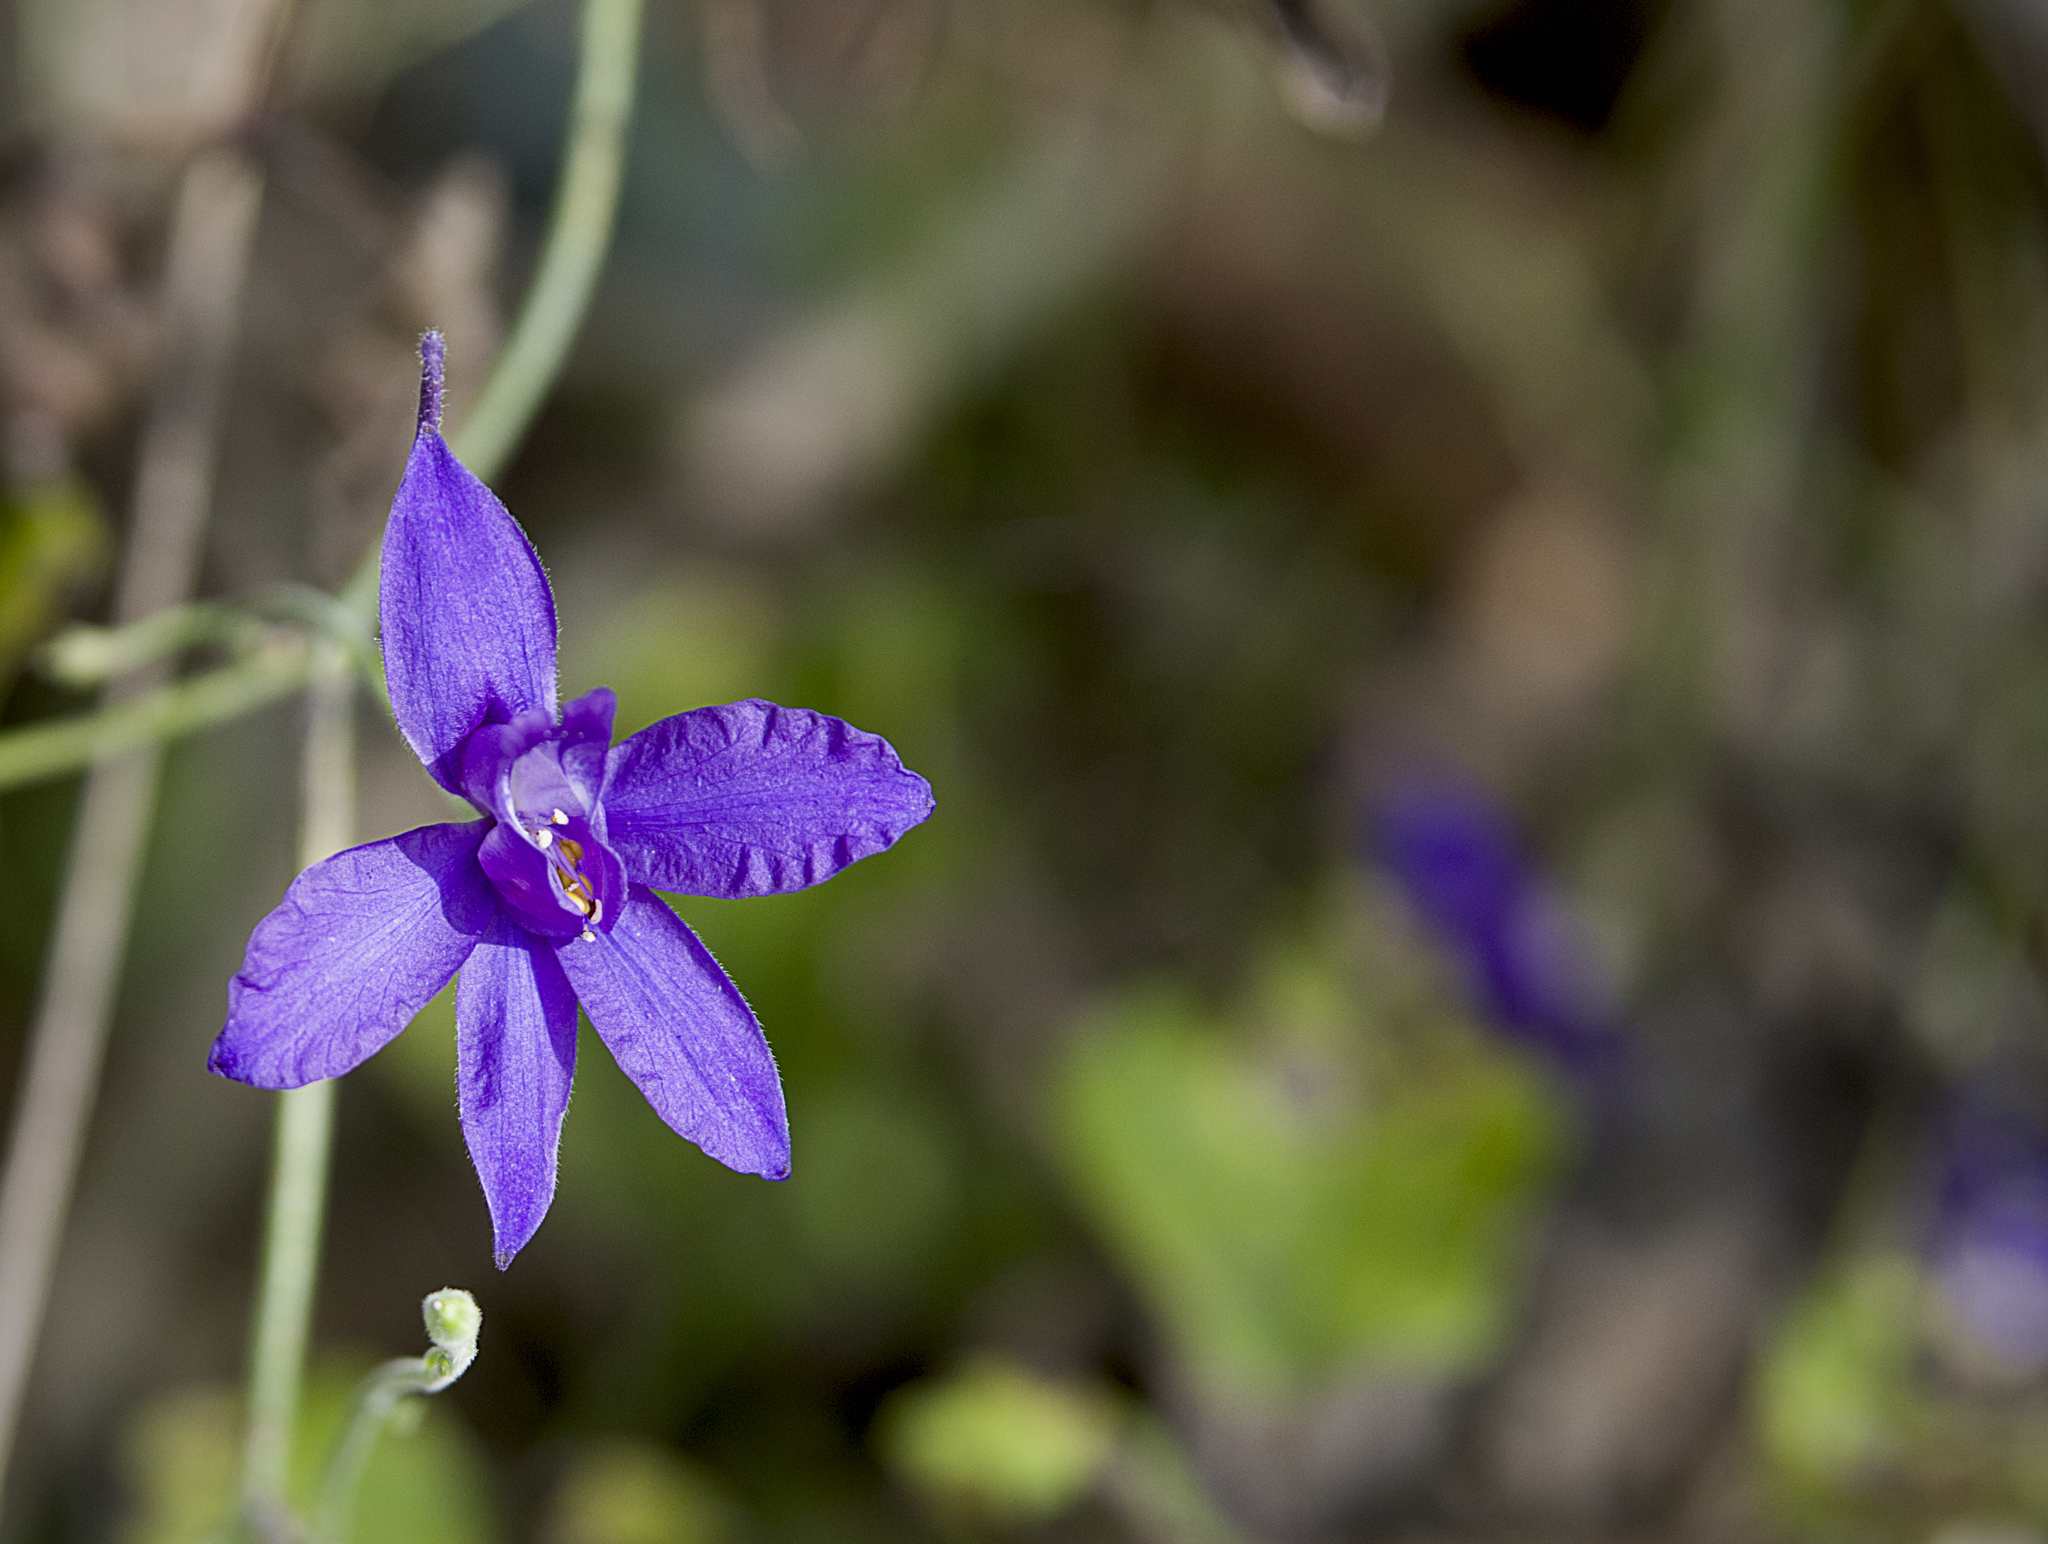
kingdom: Plantae
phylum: Tracheophyta
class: Magnoliopsida
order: Ranunculales
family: Ranunculaceae
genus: Delphinium
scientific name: Delphinium consolida
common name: Branching larkspur
